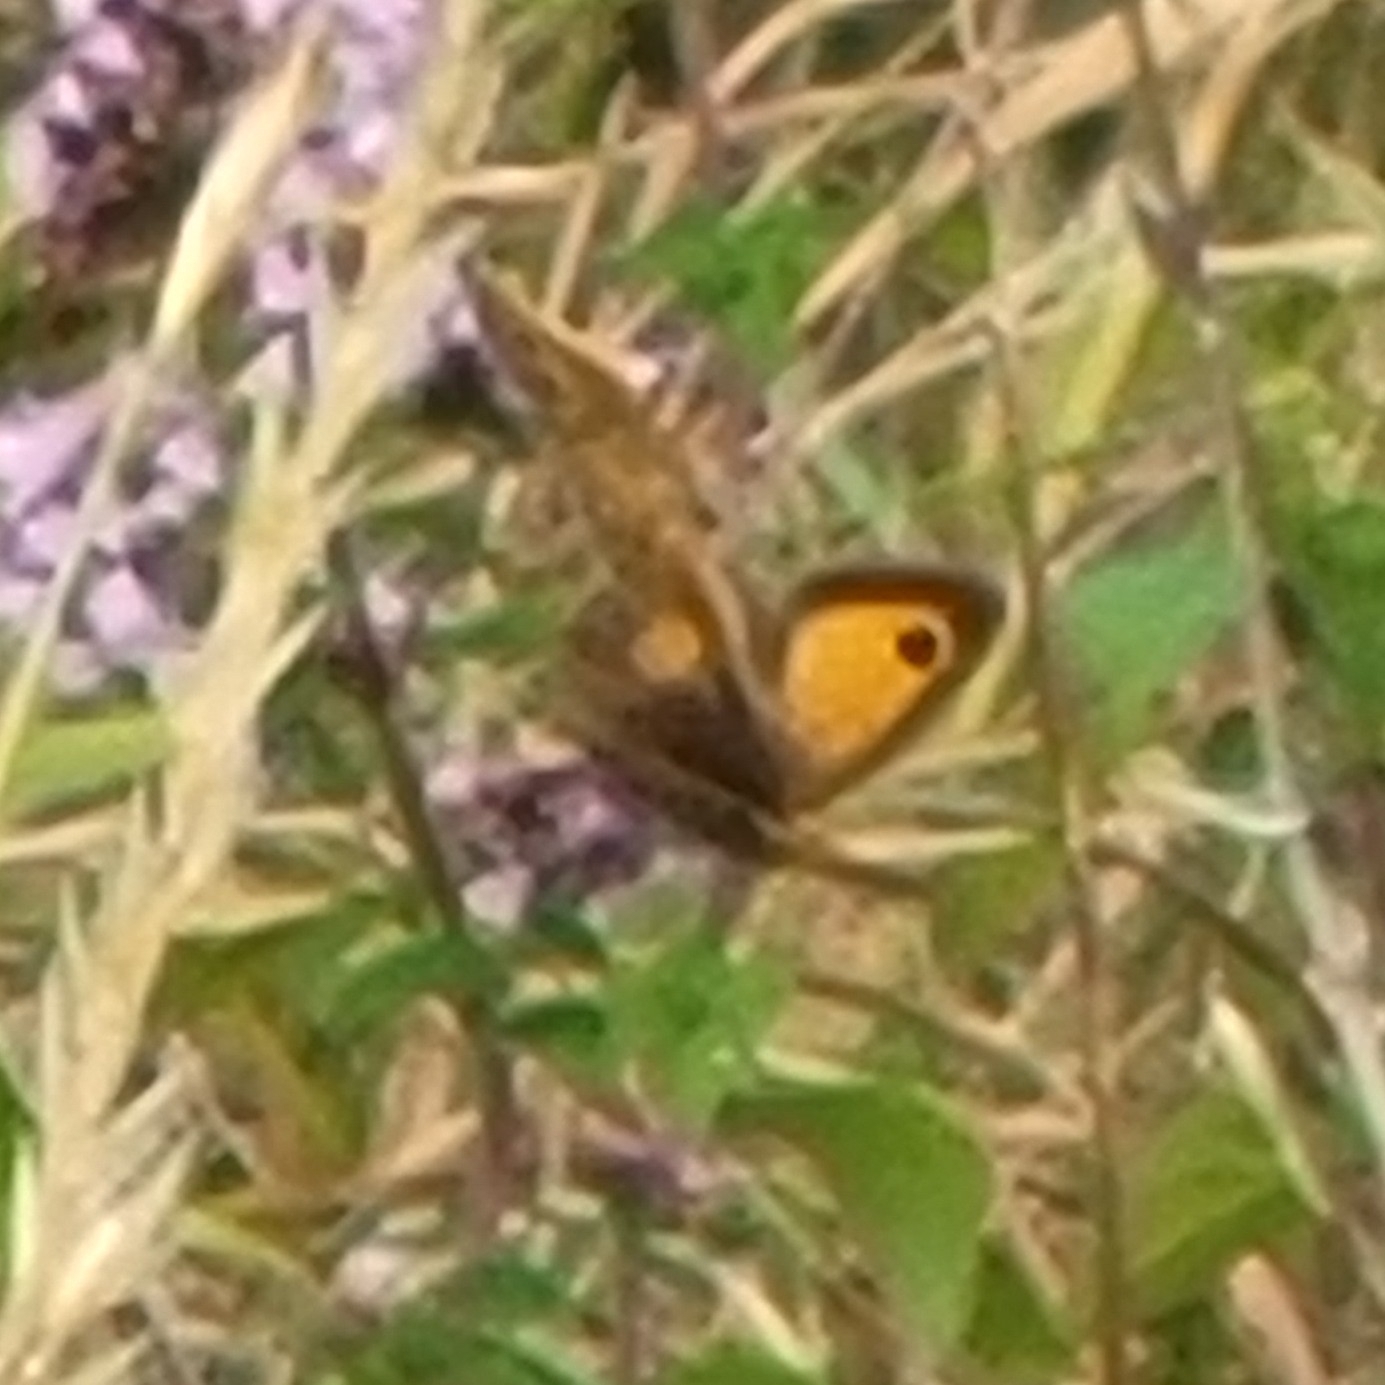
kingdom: Animalia
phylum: Arthropoda
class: Insecta
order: Lepidoptera
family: Nymphalidae
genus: Pyronia
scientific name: Pyronia tithonus
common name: Gatekeeper
